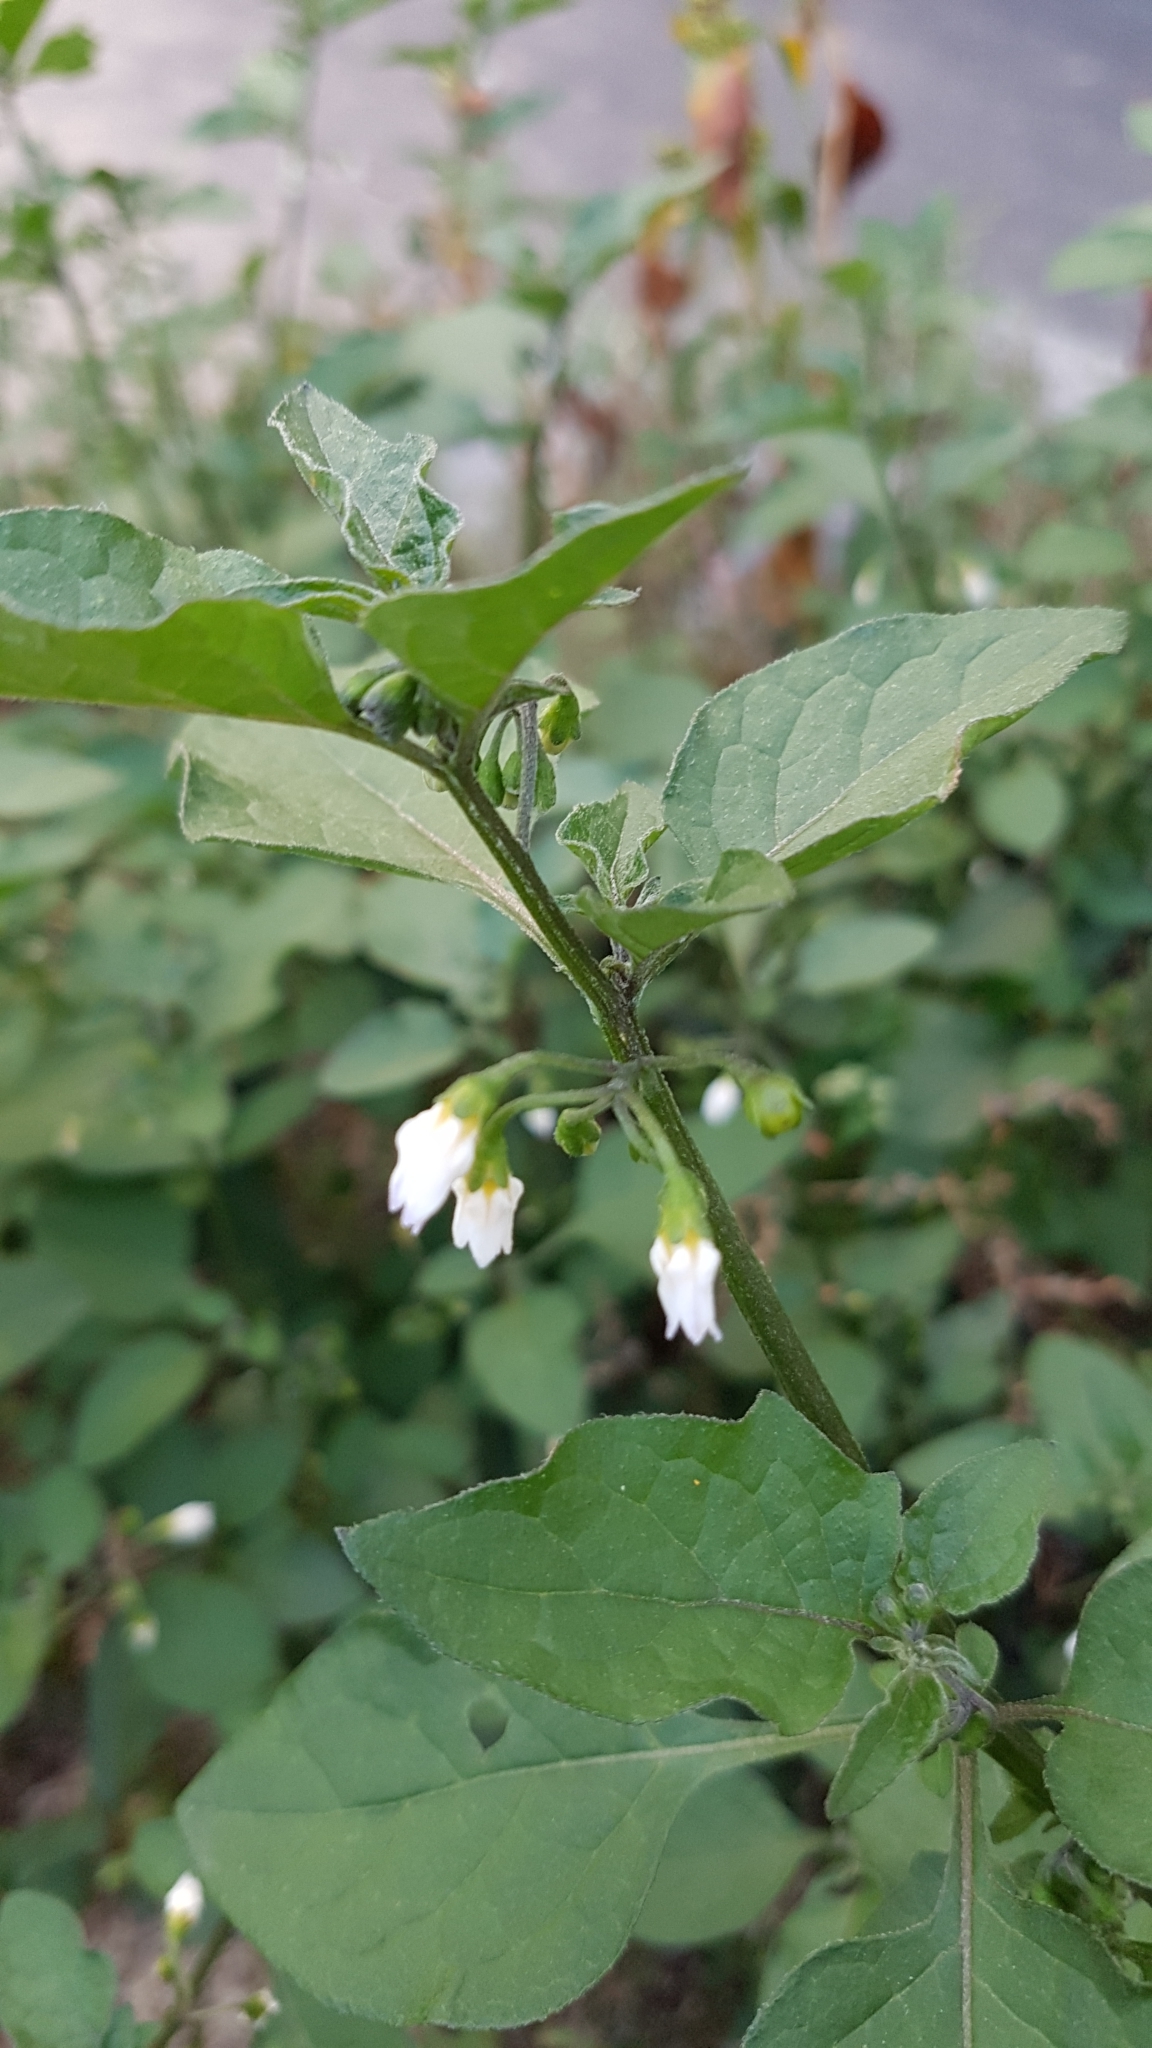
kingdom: Plantae
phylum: Tracheophyta
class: Magnoliopsida
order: Solanales
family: Solanaceae
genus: Solanum
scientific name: Solanum nigrum
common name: Black nightshade
